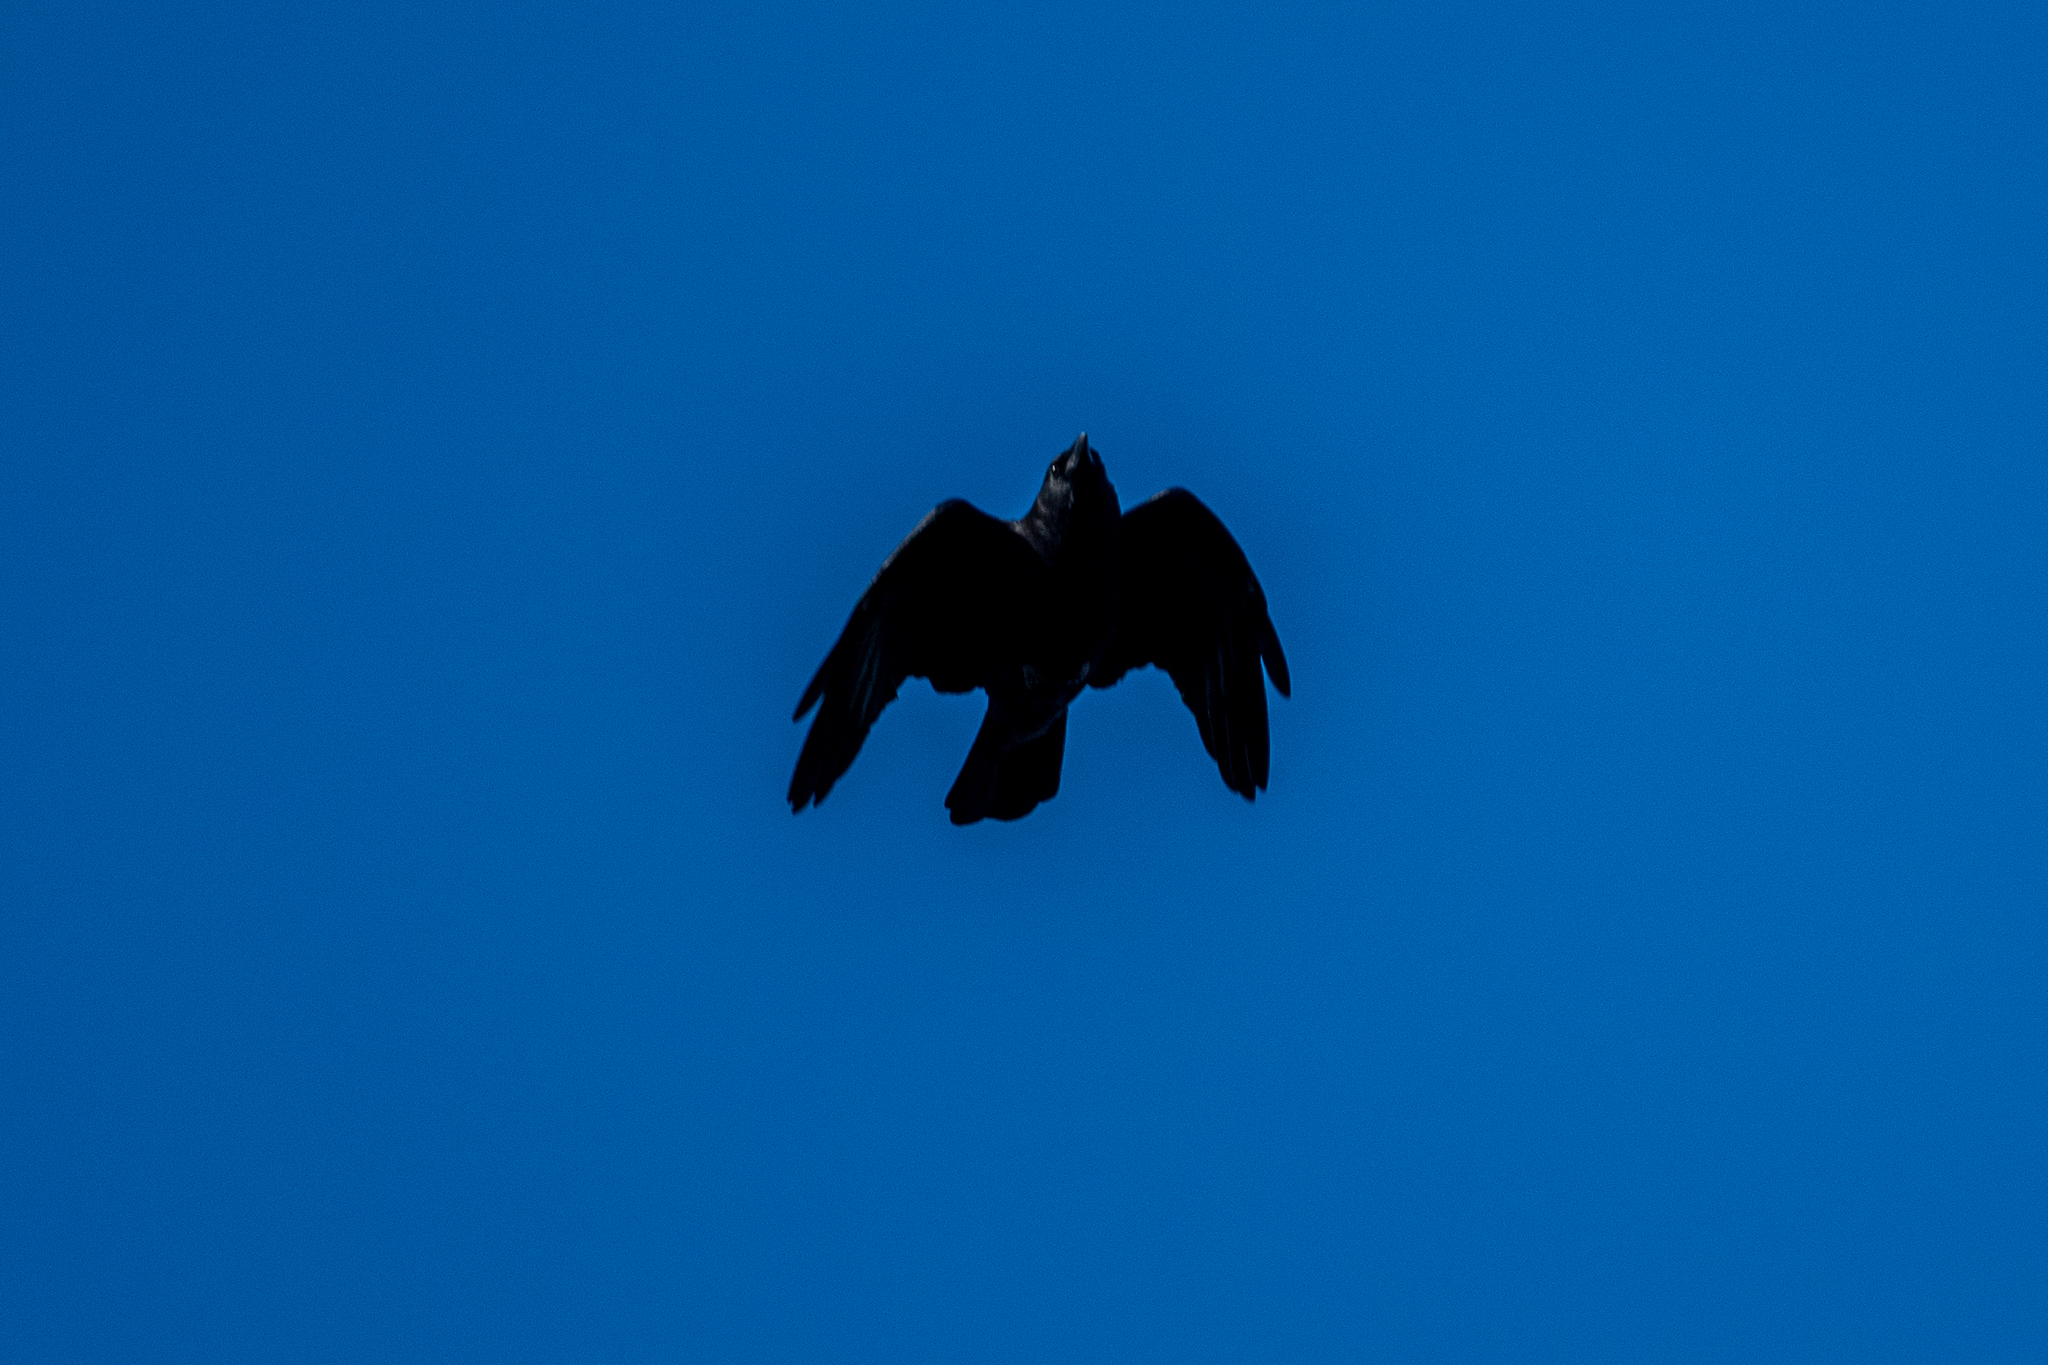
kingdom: Animalia
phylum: Chordata
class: Aves
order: Passeriformes
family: Corvidae
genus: Corvus
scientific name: Corvus corax
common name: Common raven
